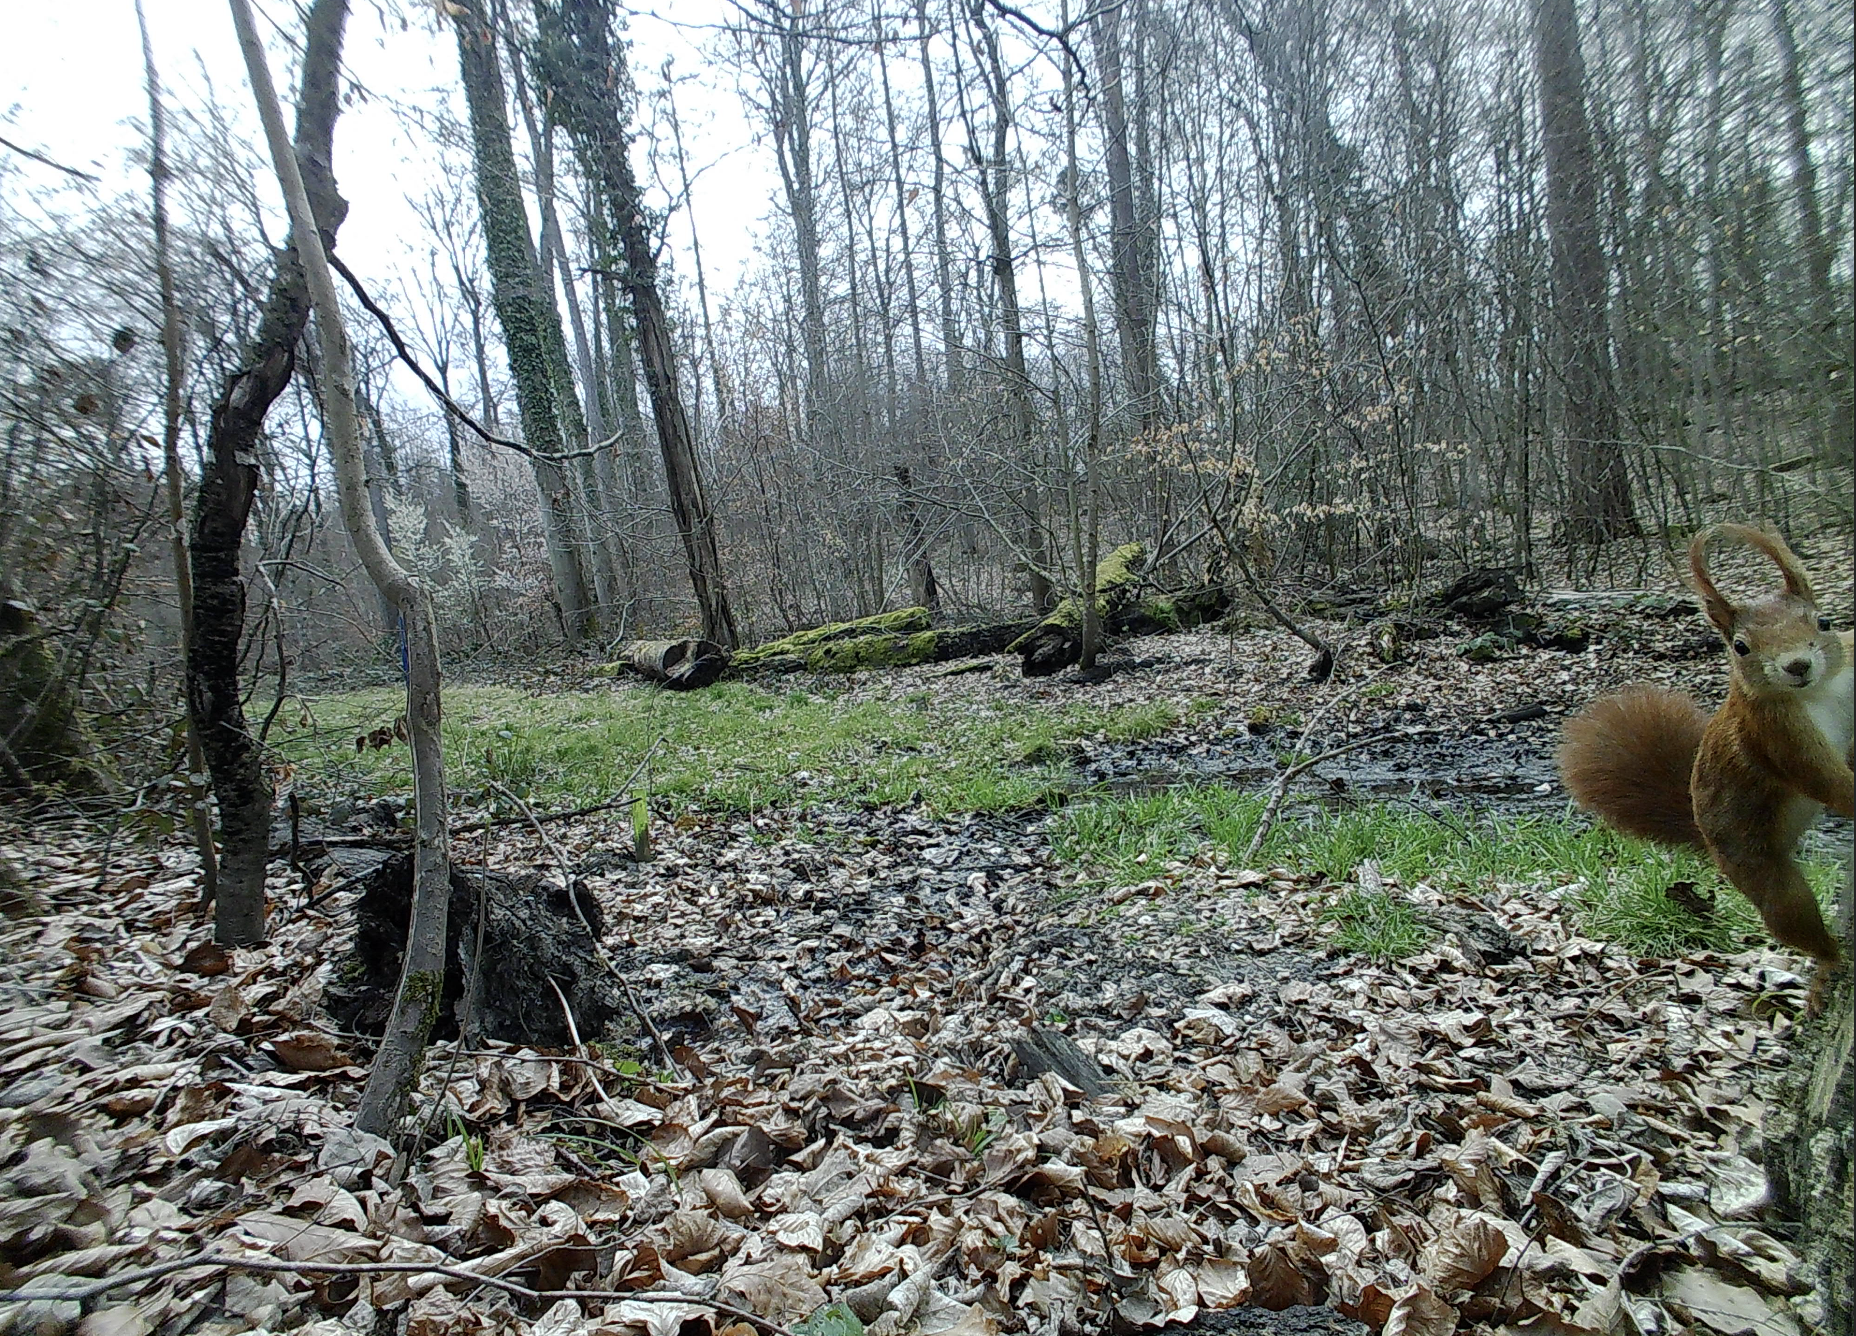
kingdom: Animalia
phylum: Chordata
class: Mammalia
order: Rodentia
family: Sciuridae
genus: Sciurus
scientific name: Sciurus vulgaris
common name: Eurasian red squirrel
